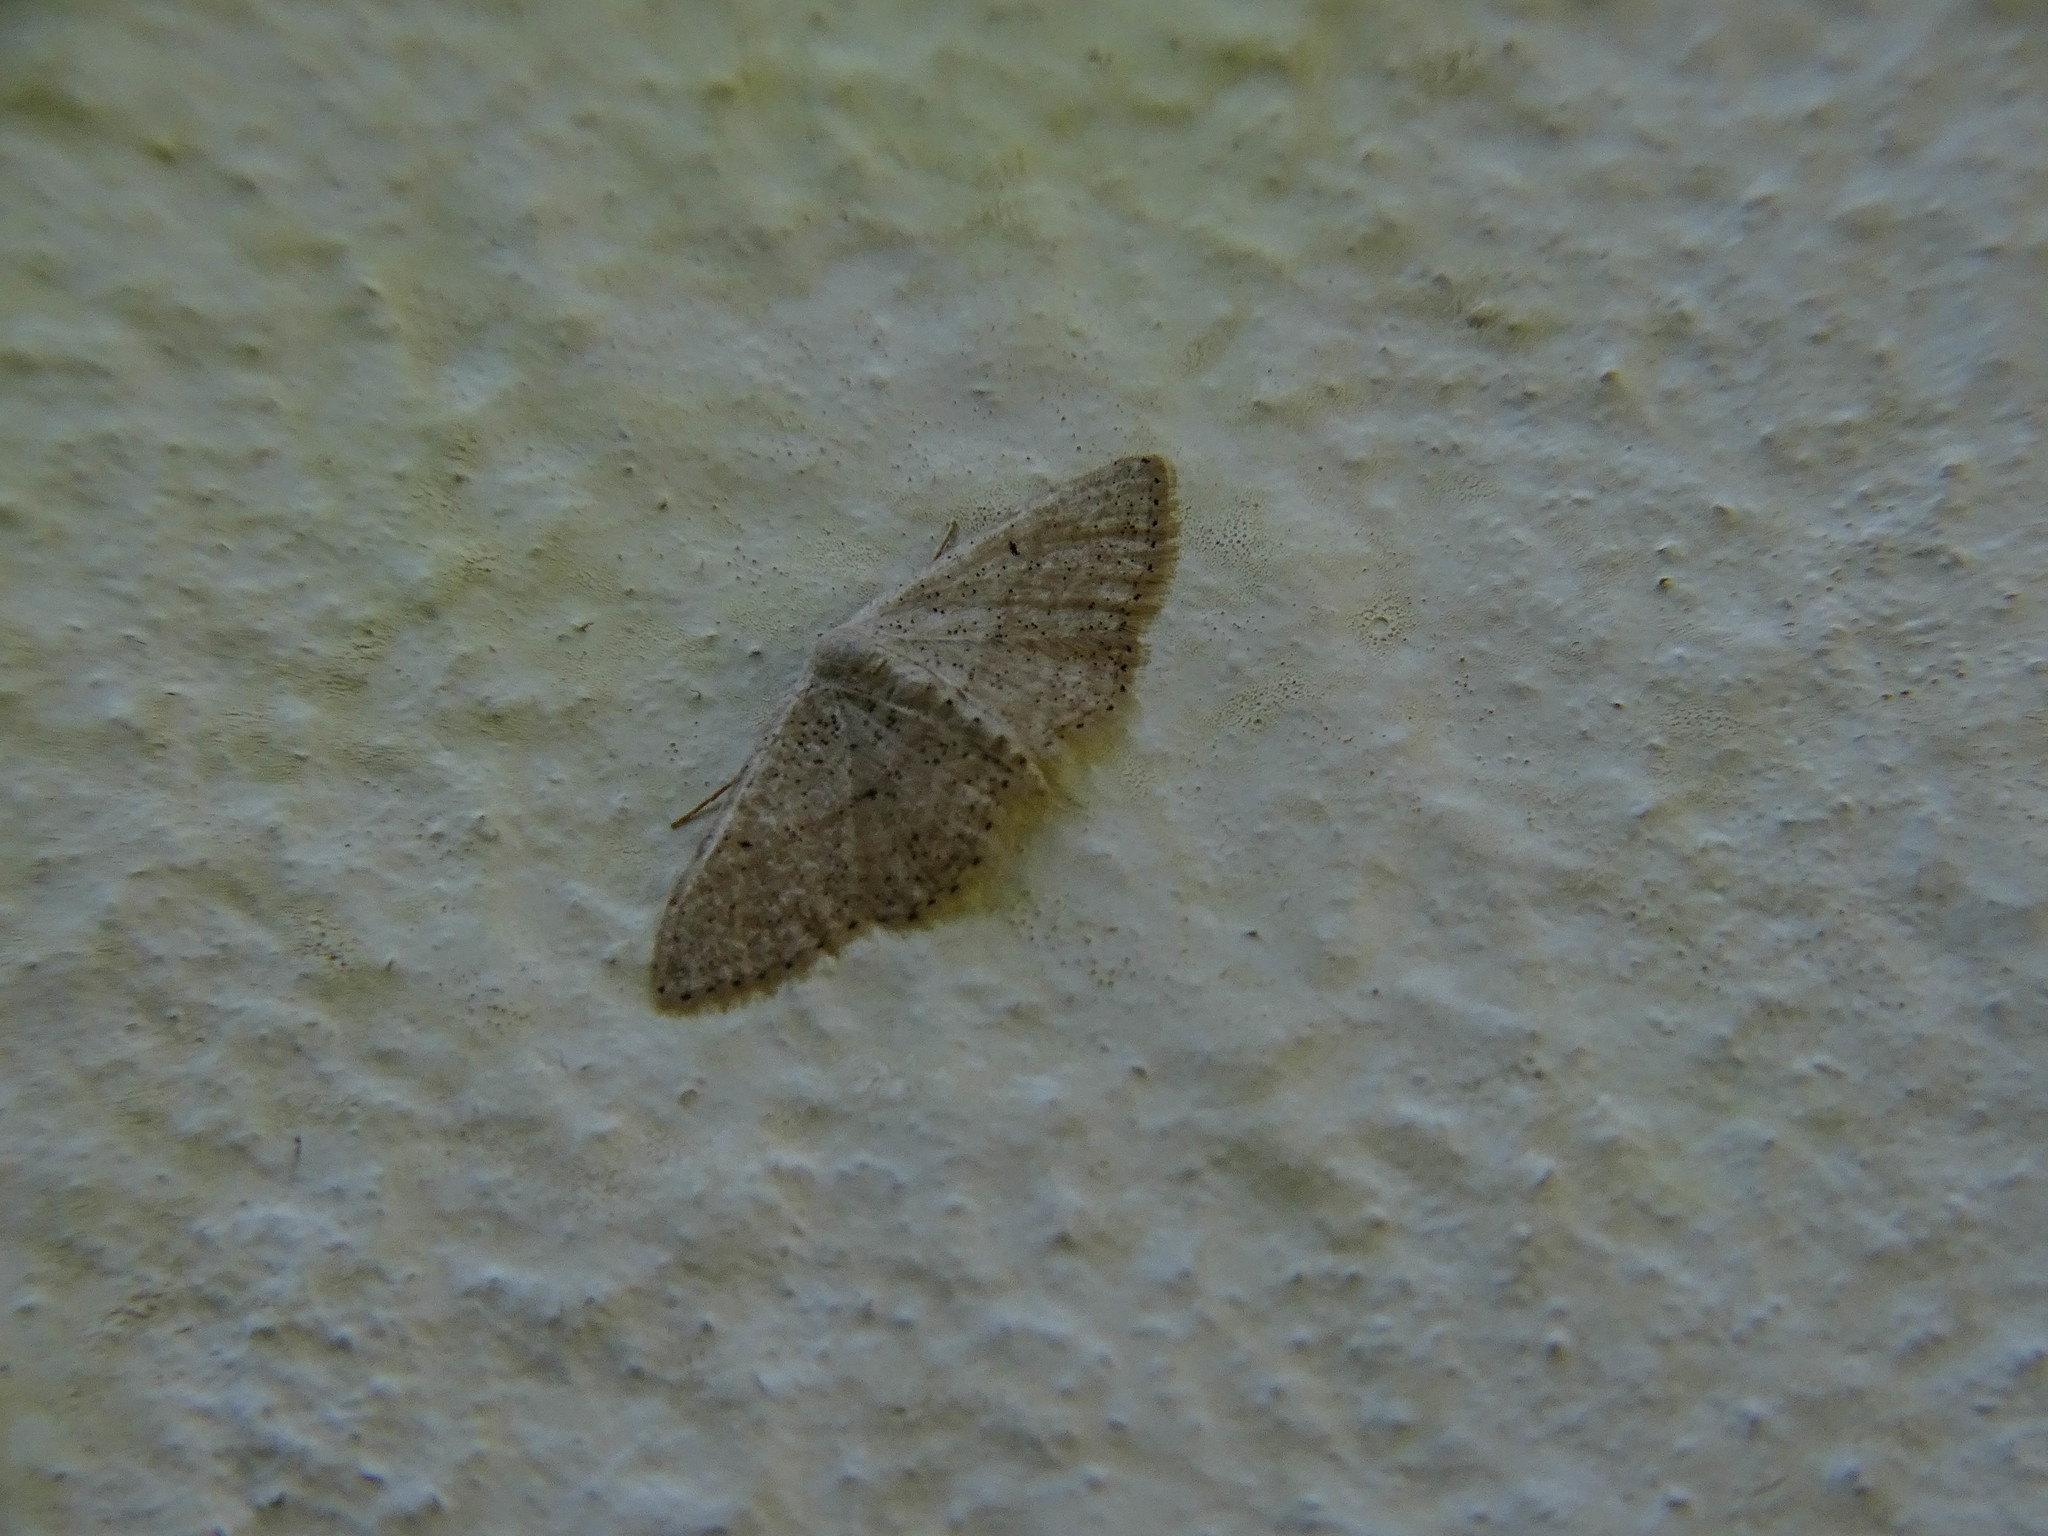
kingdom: Animalia
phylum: Arthropoda
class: Insecta
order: Lepidoptera
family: Geometridae
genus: Idaea
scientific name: Idaea palaestinensis
